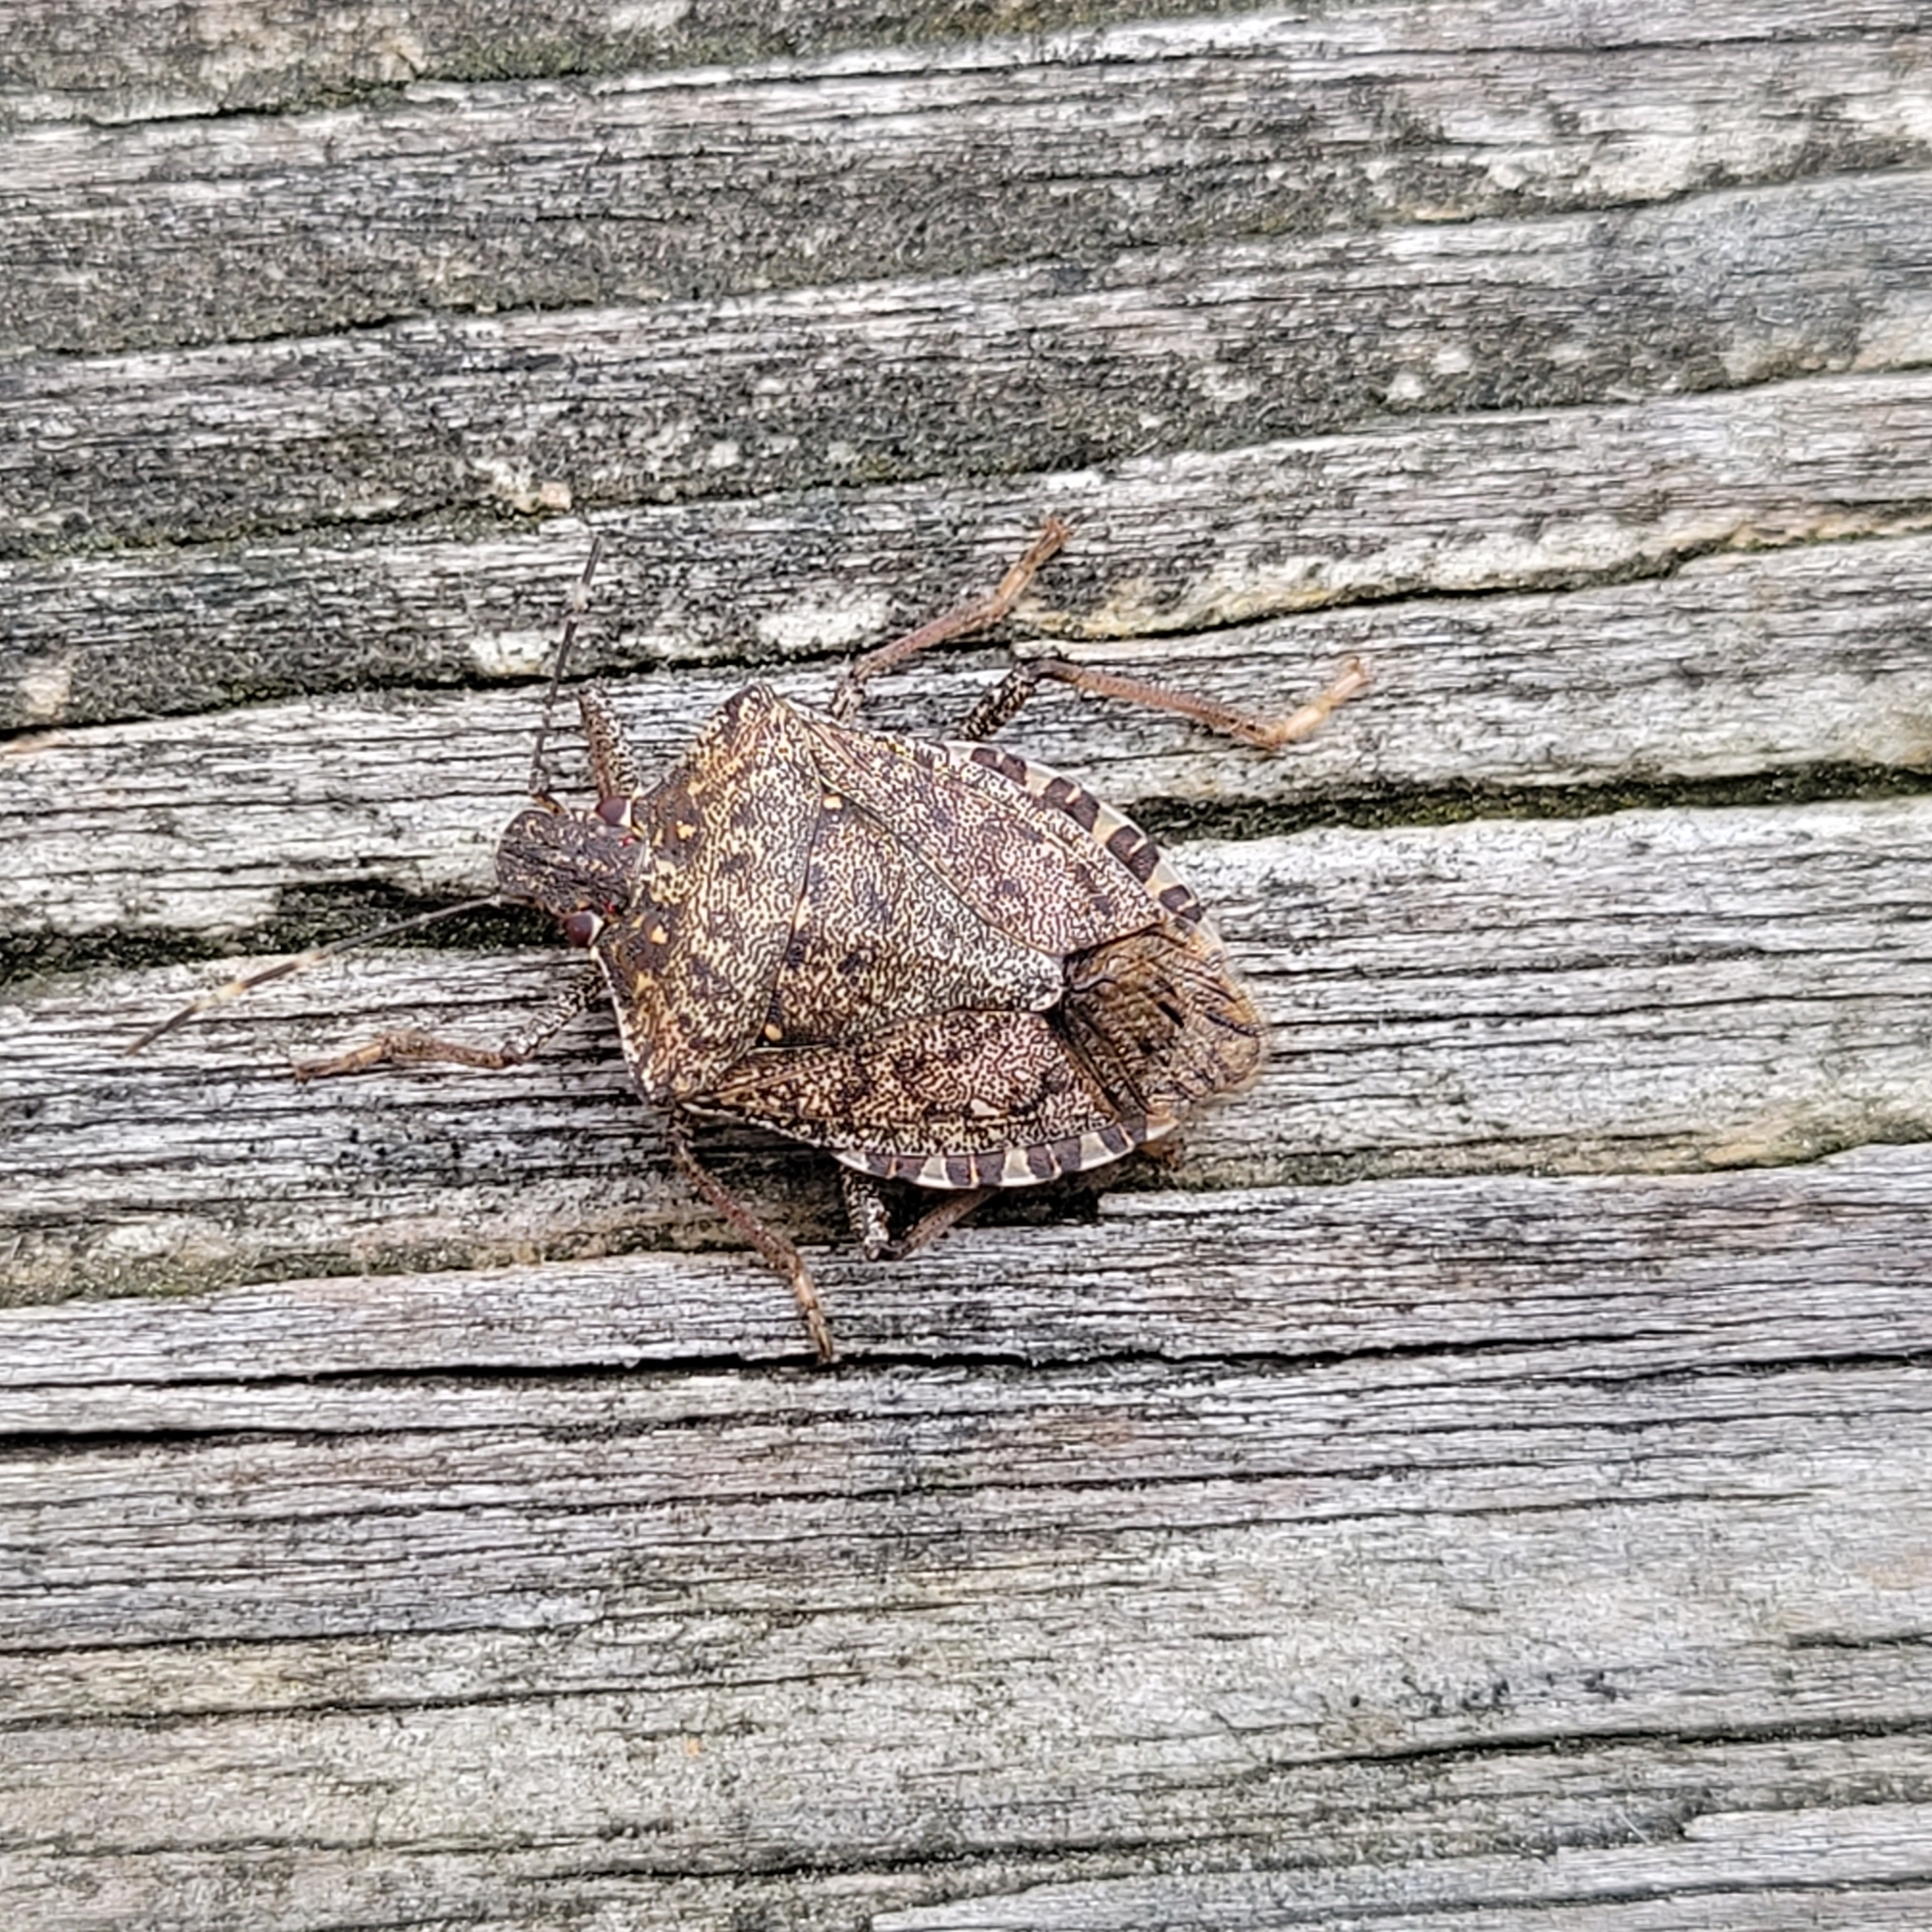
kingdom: Animalia
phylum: Arthropoda
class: Insecta
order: Hemiptera
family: Pentatomidae
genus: Halyomorpha
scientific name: Halyomorpha halys
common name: Brown marmorated stink bug
